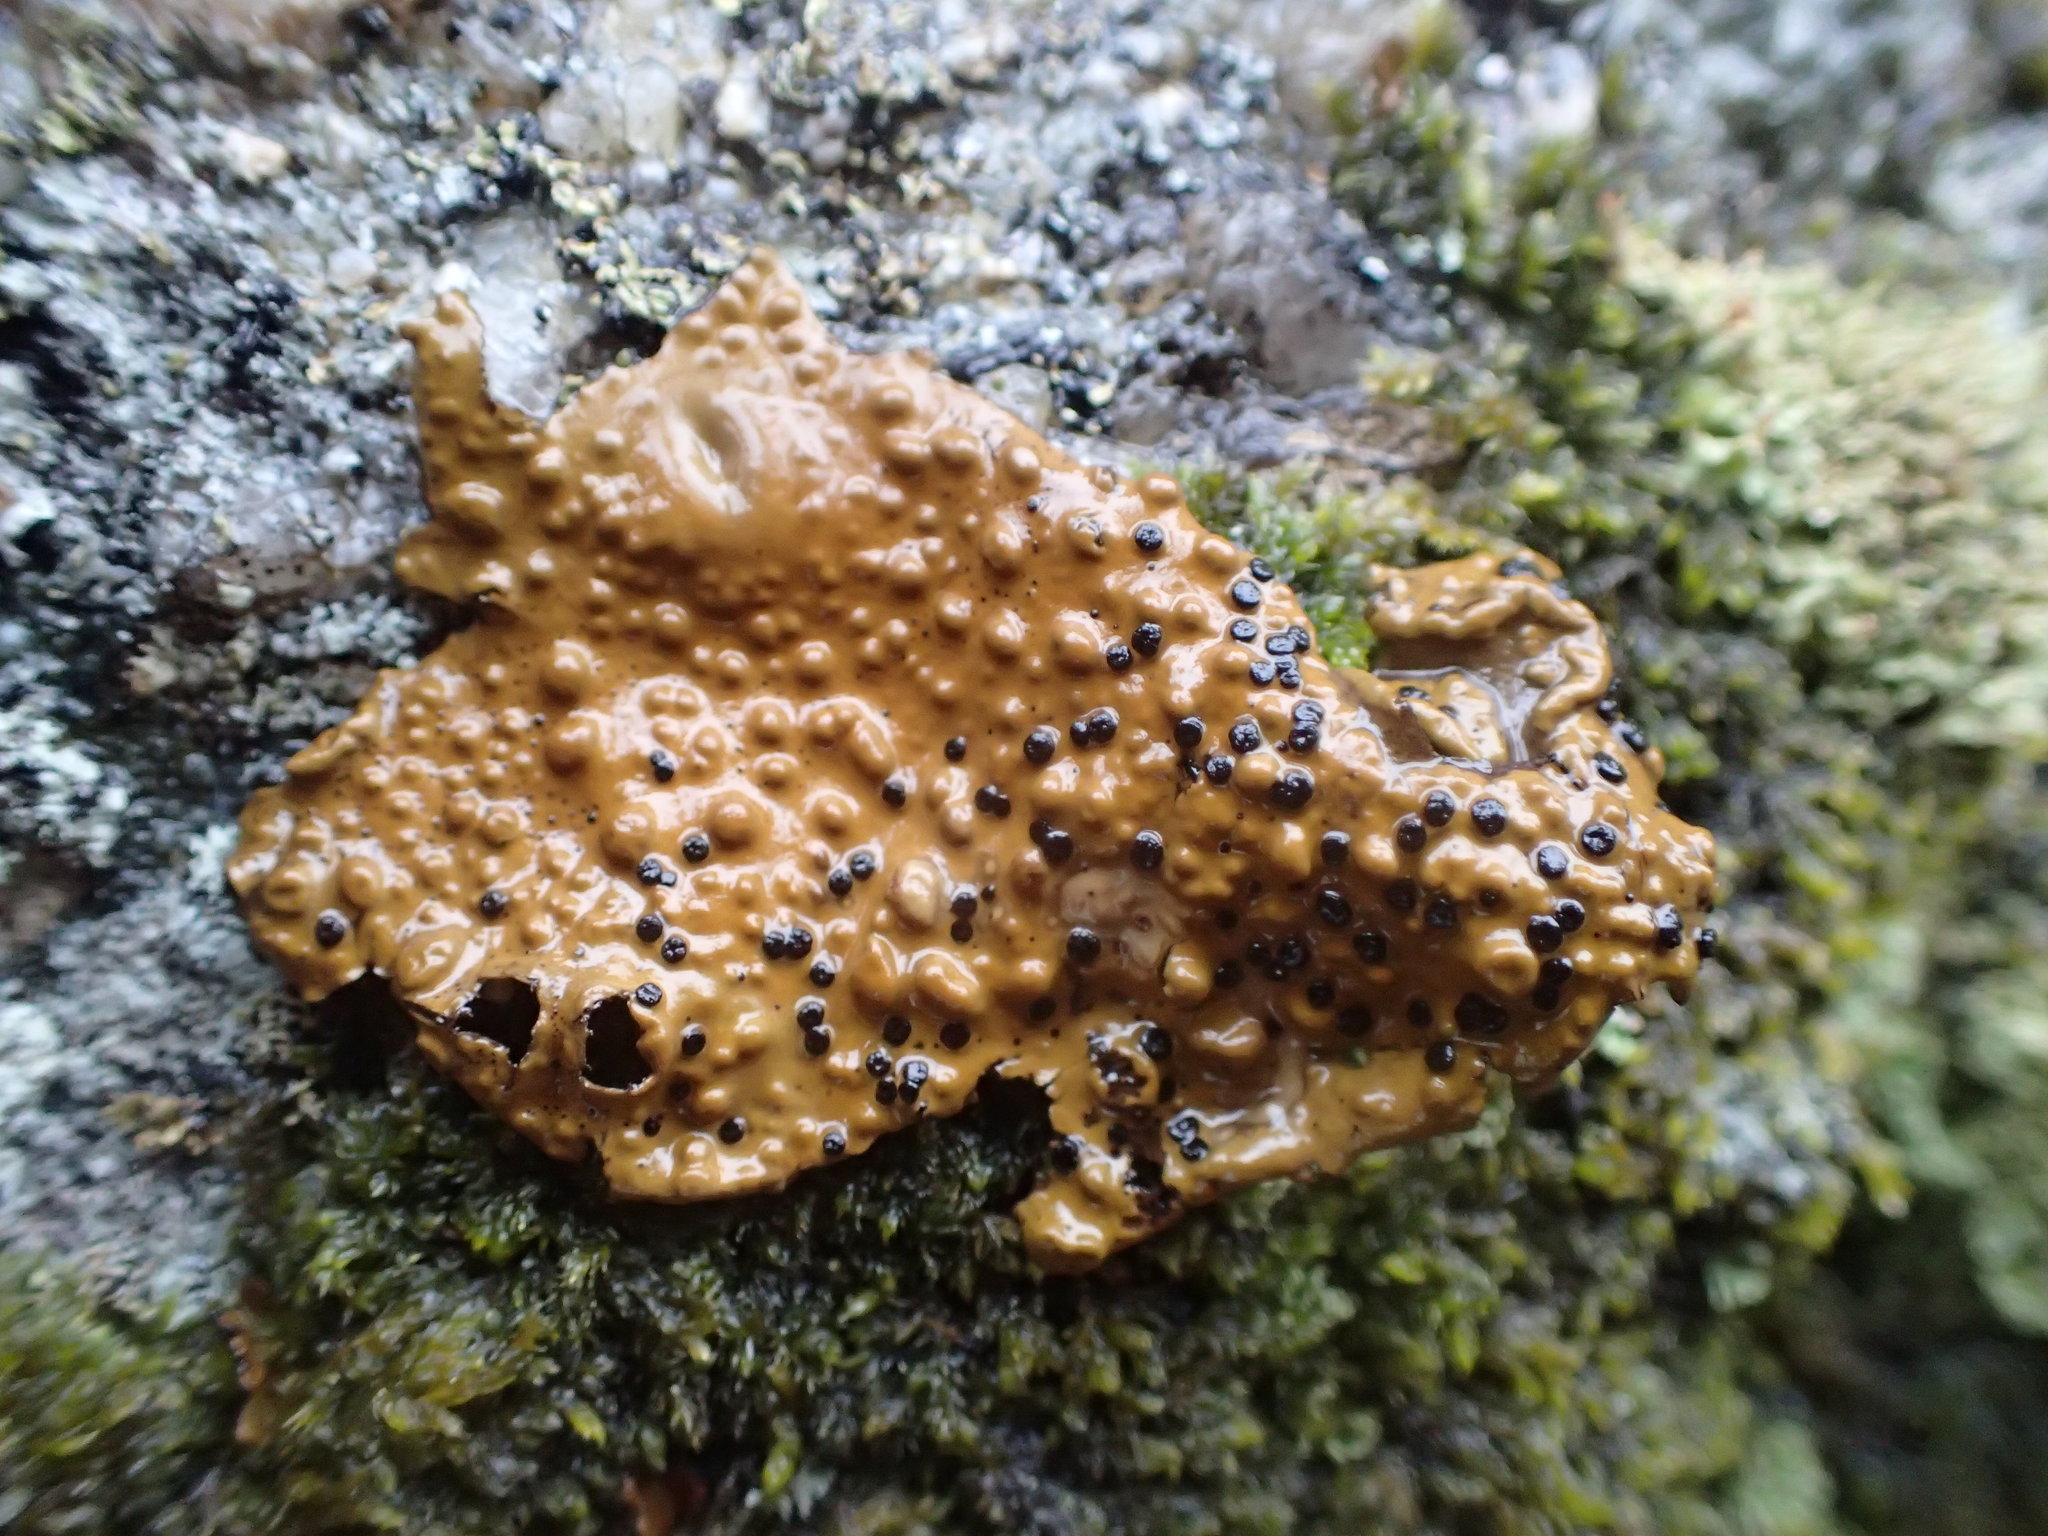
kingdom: Fungi
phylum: Ascomycota
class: Lecanoromycetes
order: Umbilicariales
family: Umbilicariaceae
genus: Lasallia
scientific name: Lasallia papulosa
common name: Common toadskin lichen
